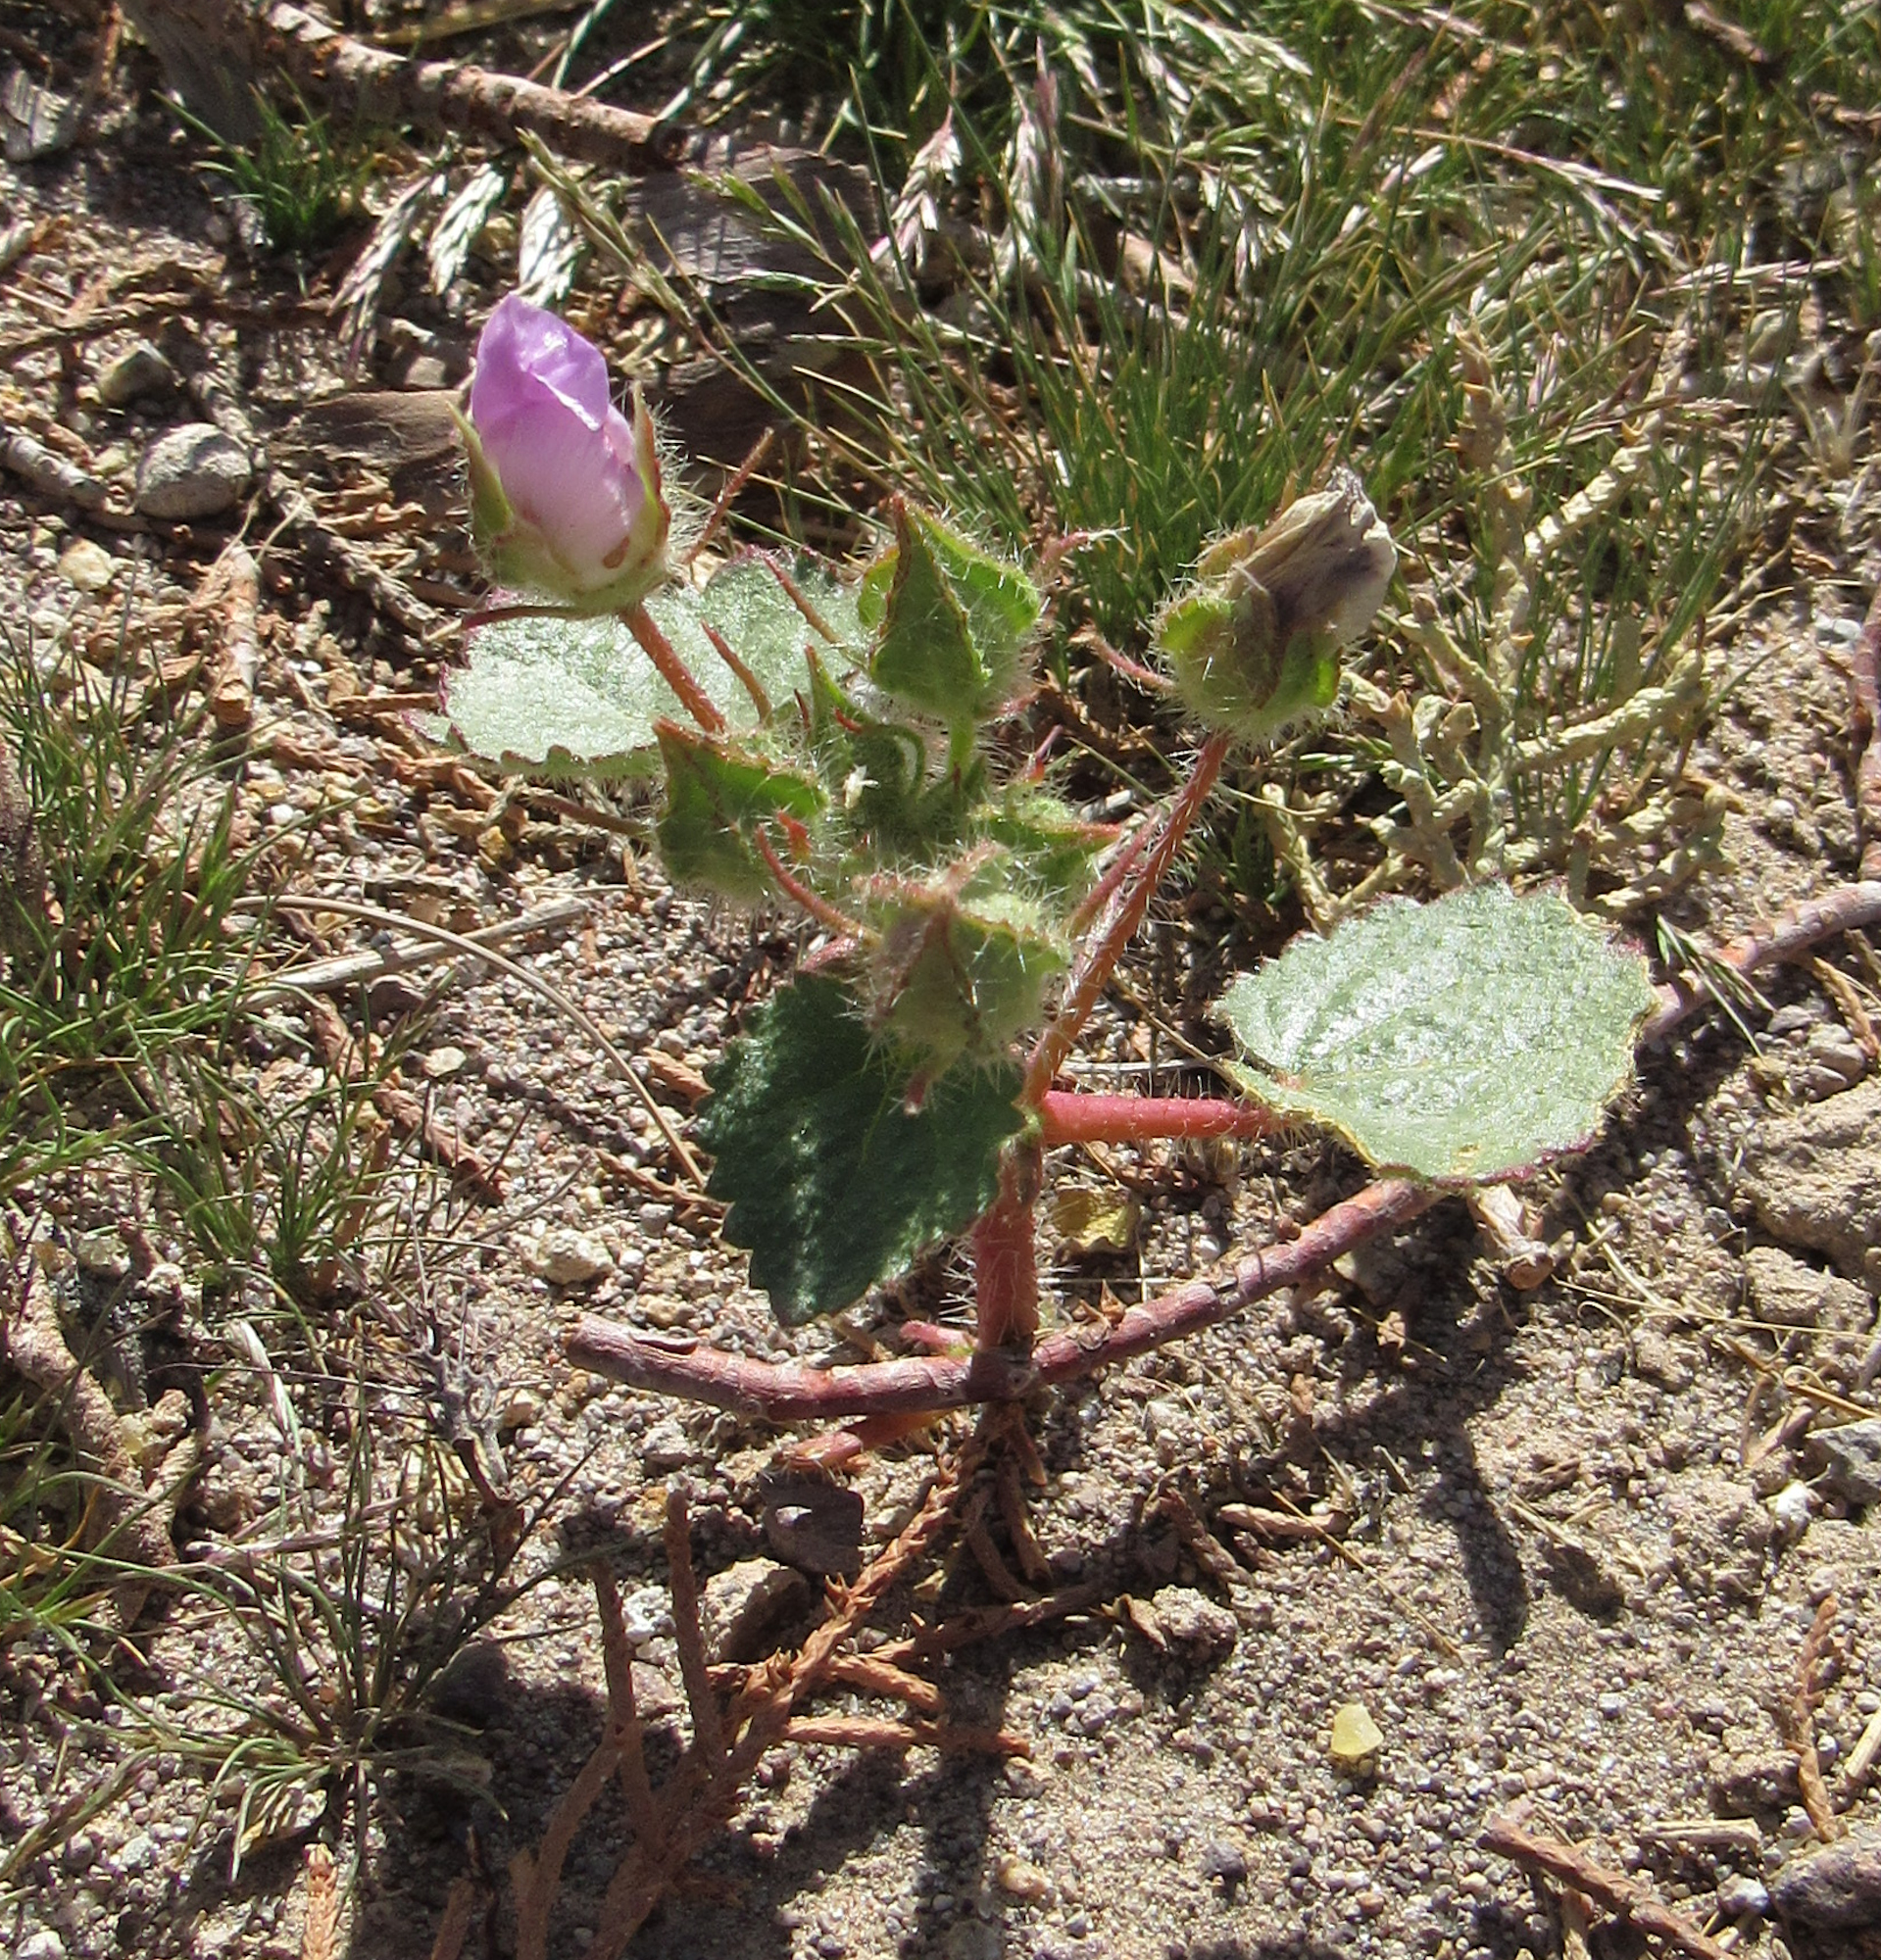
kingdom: Plantae
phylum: Tracheophyta
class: Magnoliopsida
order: Malvales
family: Malvaceae
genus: Eremalche
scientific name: Eremalche rotundifolia
